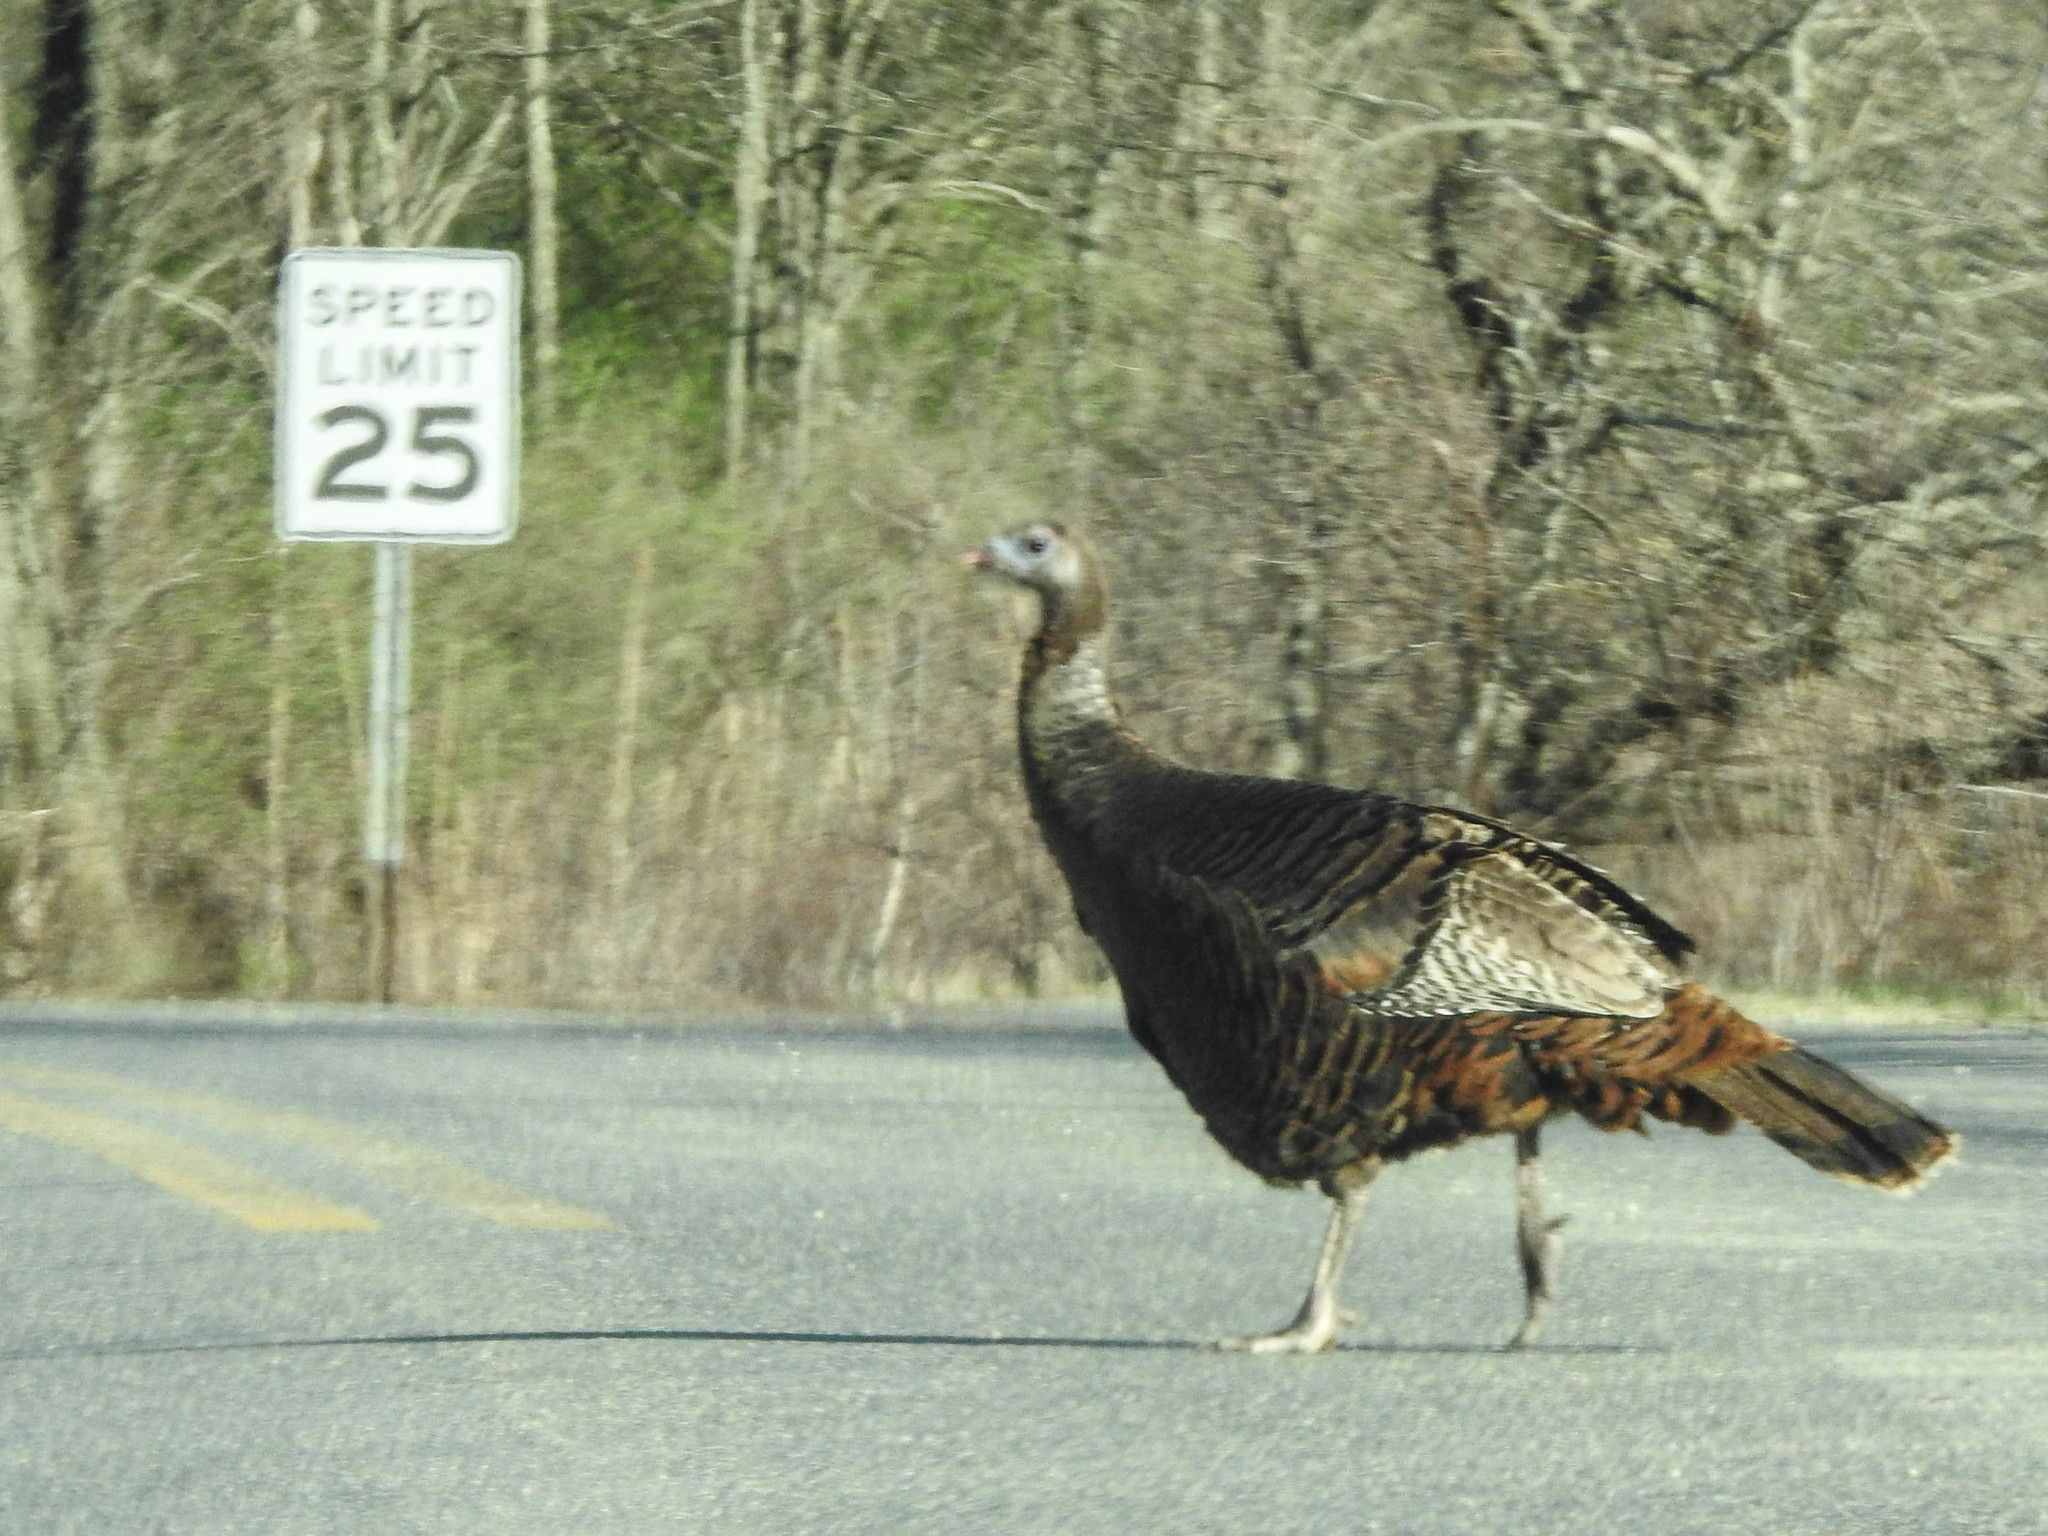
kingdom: Animalia
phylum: Chordata
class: Aves
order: Galliformes
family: Phasianidae
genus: Meleagris
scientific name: Meleagris gallopavo
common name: Wild turkey
